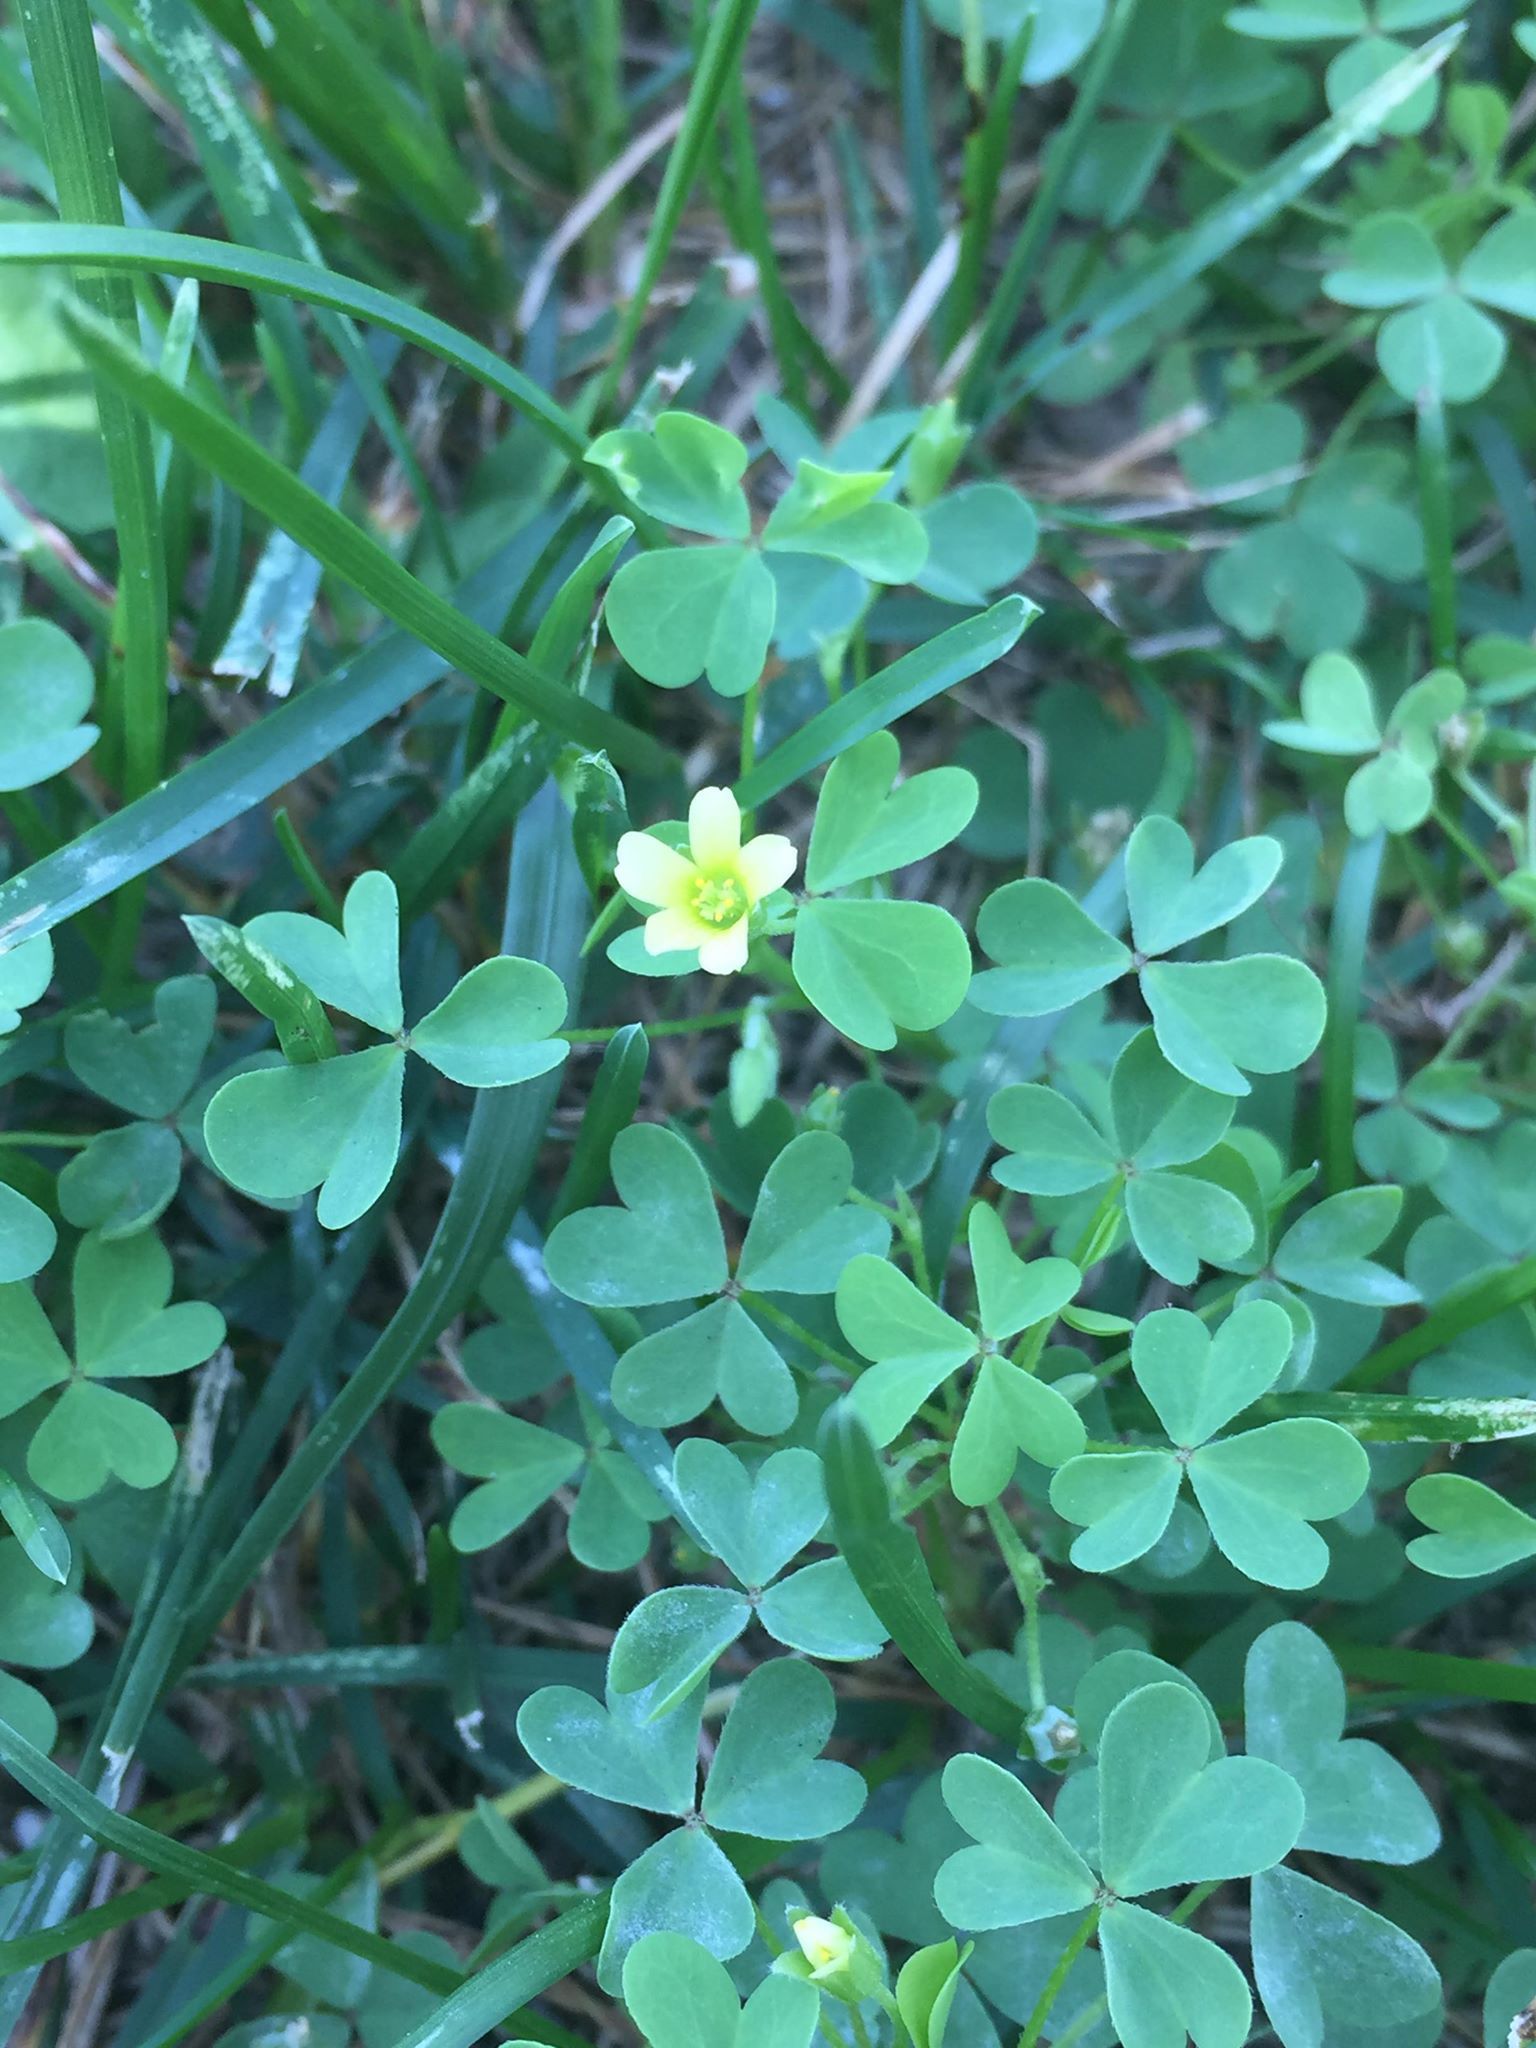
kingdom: Plantae
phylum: Tracheophyta
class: Magnoliopsida
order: Oxalidales
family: Oxalidaceae
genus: Oxalis
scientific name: Oxalis stricta
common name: Upright yellow-sorrel
